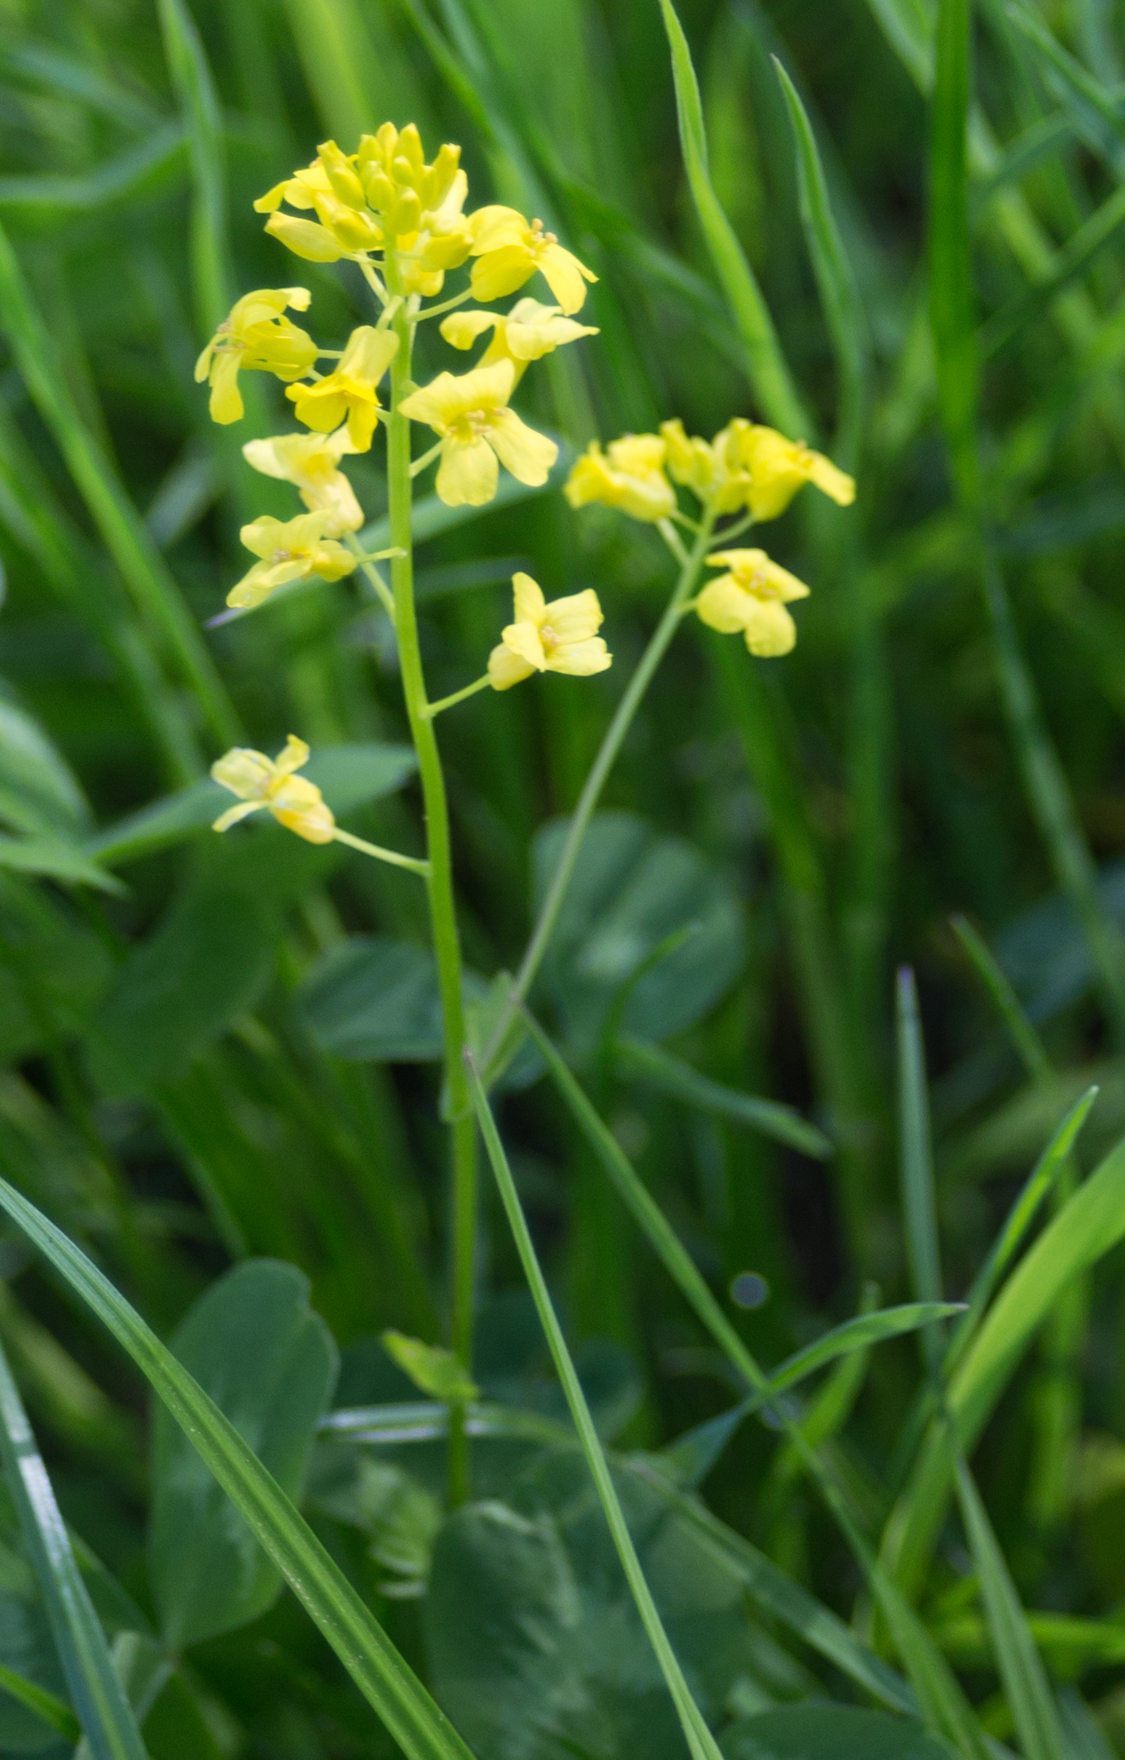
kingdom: Plantae
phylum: Tracheophyta
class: Magnoliopsida
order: Brassicales
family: Brassicaceae
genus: Barbarea
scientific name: Barbarea vulgaris
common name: Cressy-greens
